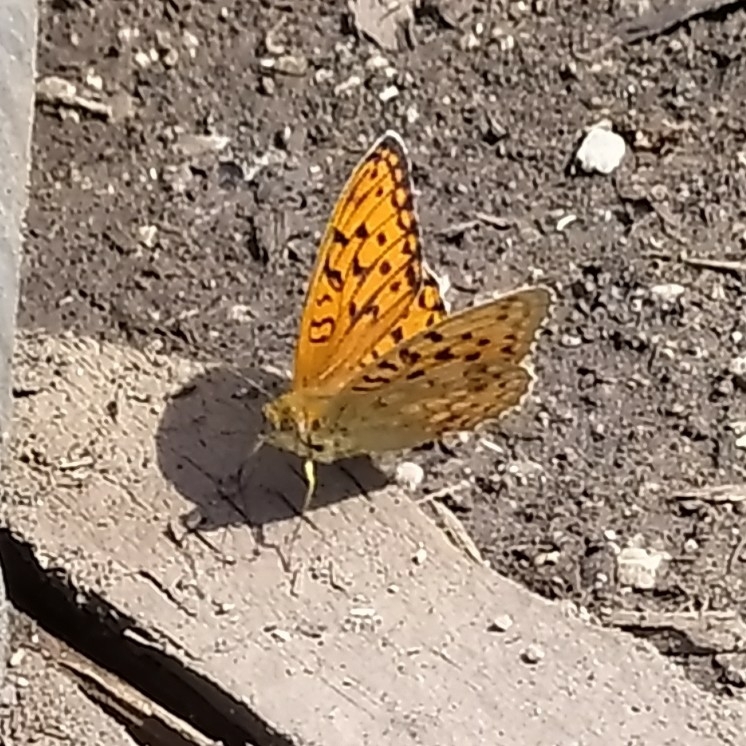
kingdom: Animalia
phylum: Arthropoda
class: Insecta
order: Lepidoptera
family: Nymphalidae
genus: Fabriciana
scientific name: Fabriciana adippe
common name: High brown fritillary
